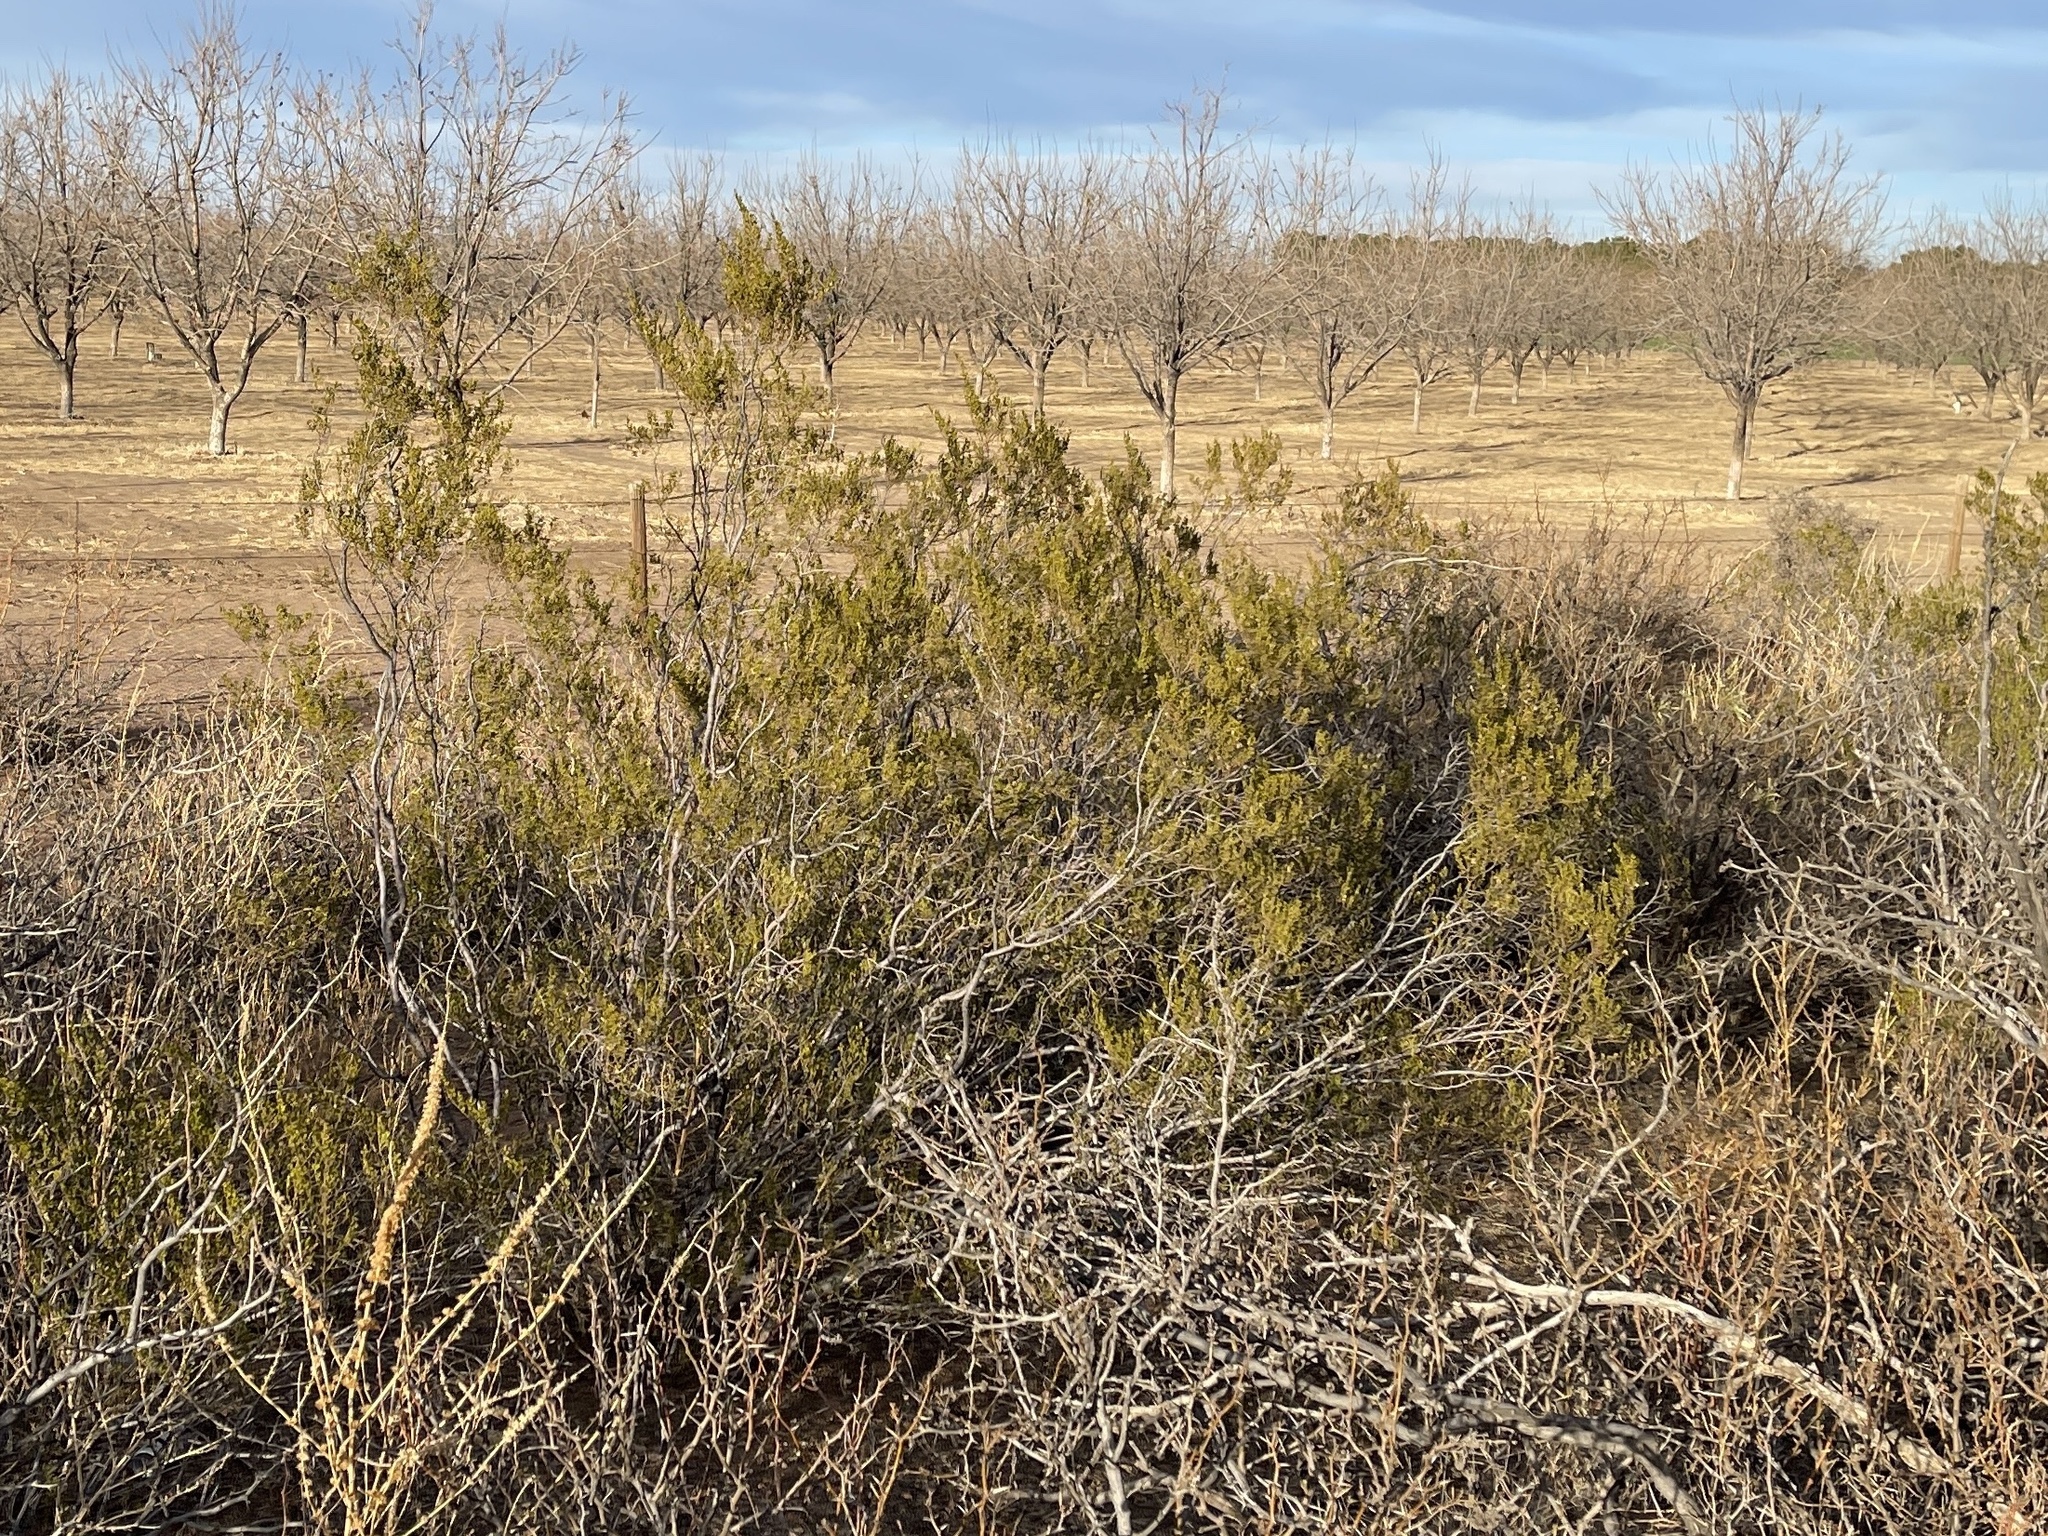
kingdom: Plantae
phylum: Tracheophyta
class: Magnoliopsida
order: Zygophyllales
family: Zygophyllaceae
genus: Larrea
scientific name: Larrea tridentata
